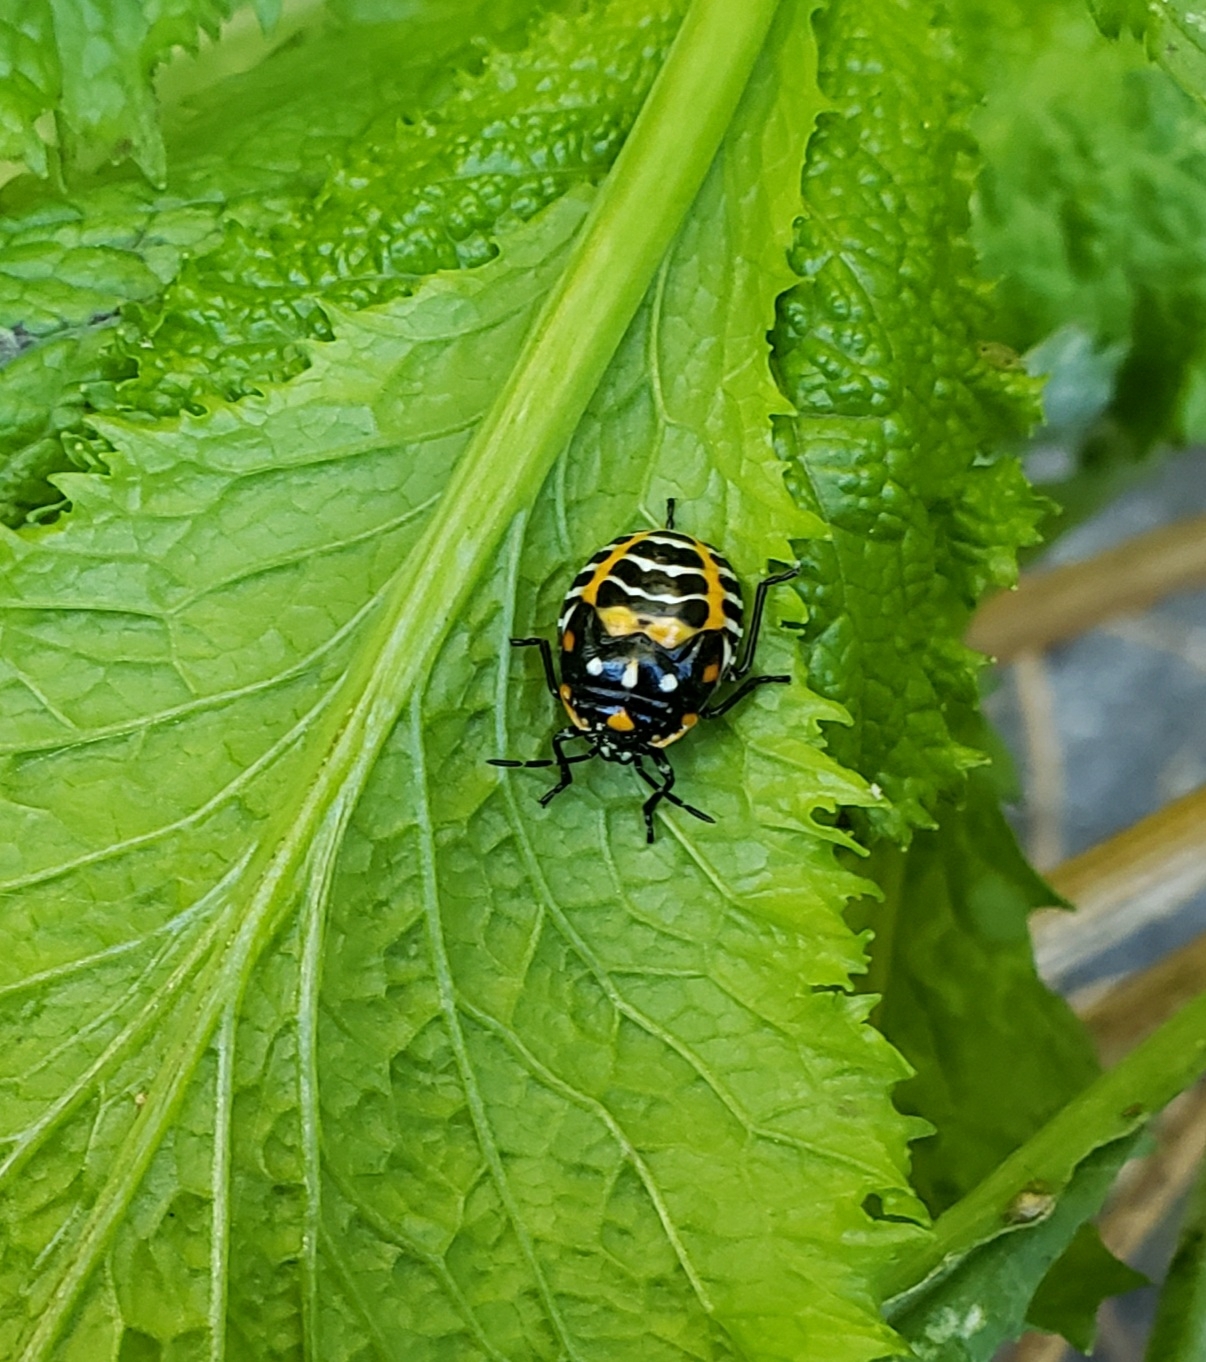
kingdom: Animalia
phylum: Arthropoda
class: Insecta
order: Hemiptera
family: Pentatomidae
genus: Murgantia
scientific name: Murgantia histrionica
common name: Harlequin bug
